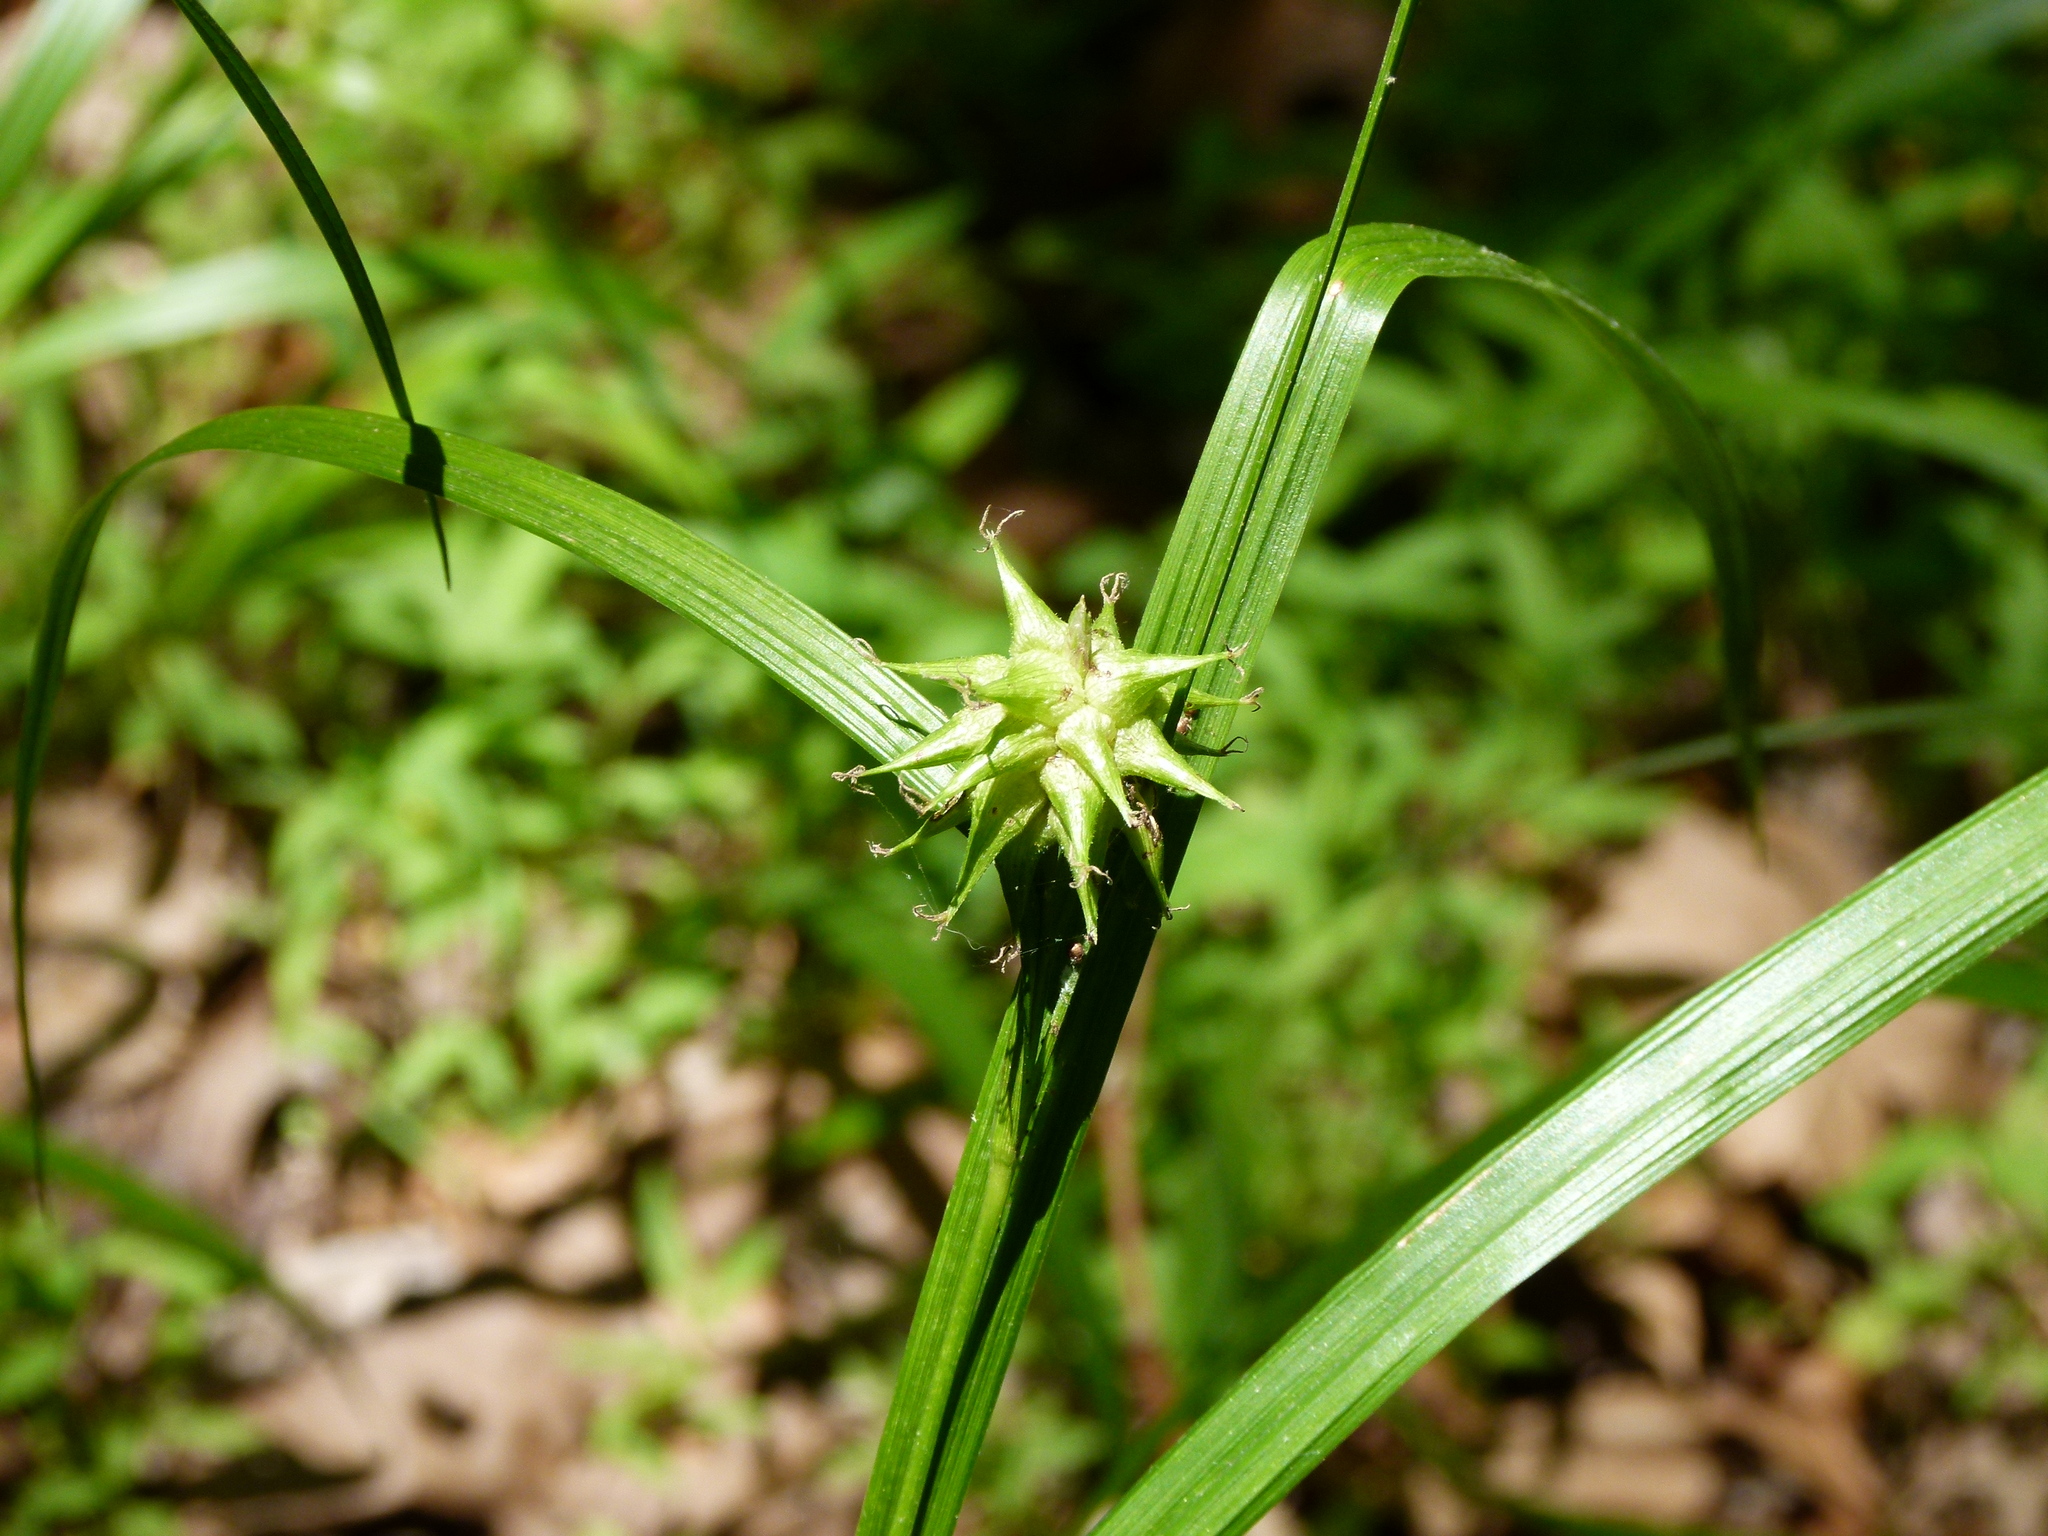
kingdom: Plantae
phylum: Tracheophyta
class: Liliopsida
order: Poales
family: Cyperaceae
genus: Carex
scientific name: Carex grayi
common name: Asa gray's sedge
